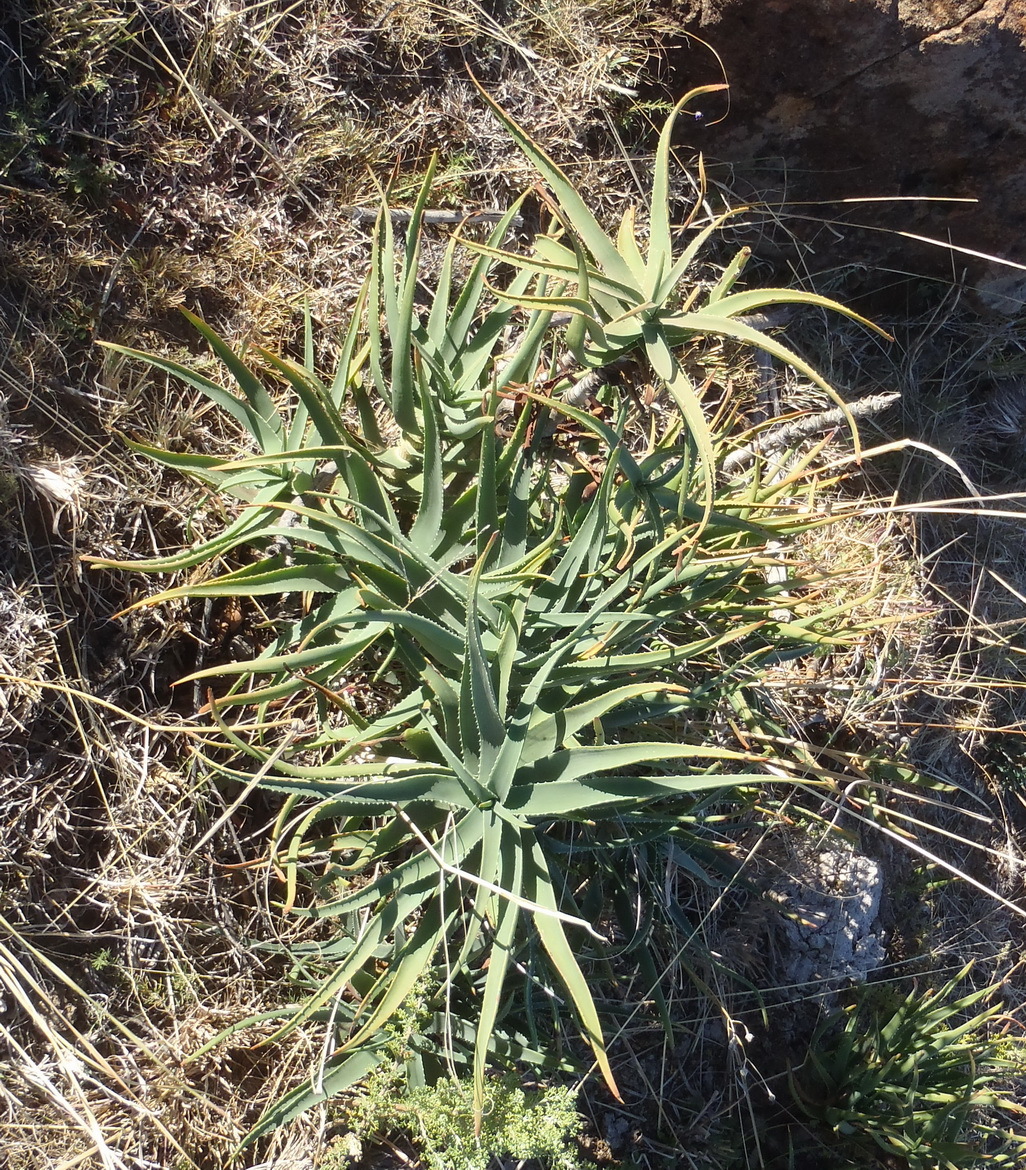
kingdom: Plantae
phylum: Tracheophyta
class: Liliopsida
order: Asparagales
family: Asphodelaceae
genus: Aloiampelos
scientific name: Aloiampelos striatula
